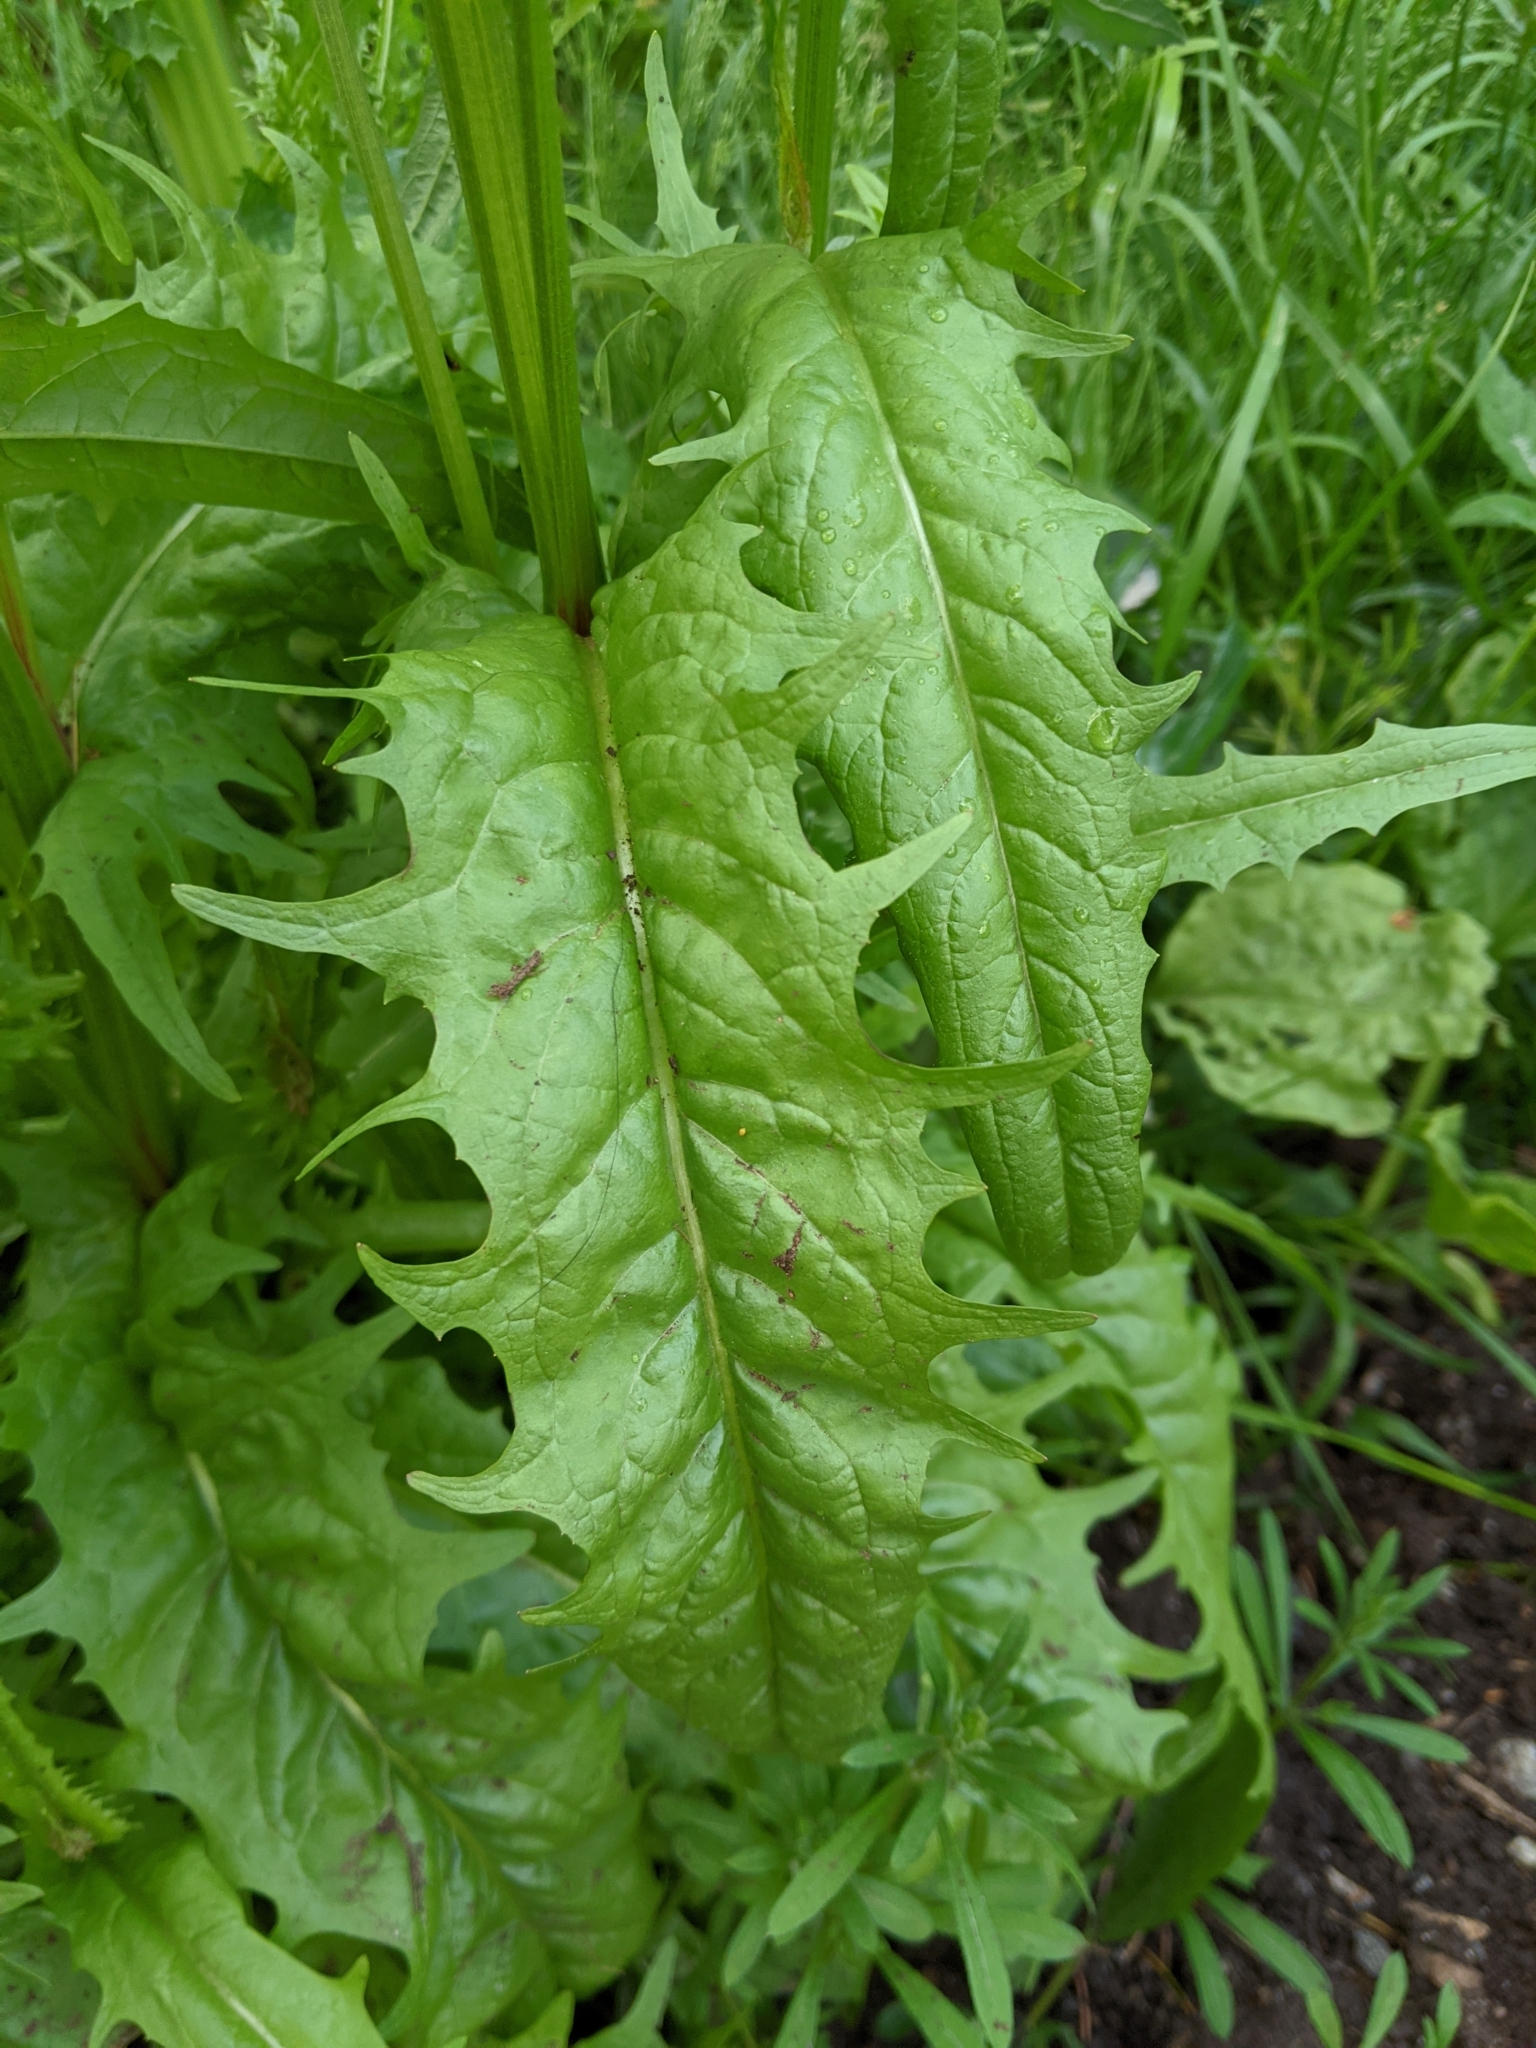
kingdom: Plantae
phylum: Tracheophyta
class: Magnoliopsida
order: Asterales
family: Asteraceae
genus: Crepis
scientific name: Crepis capillaris
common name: Smooth hawksbeard
